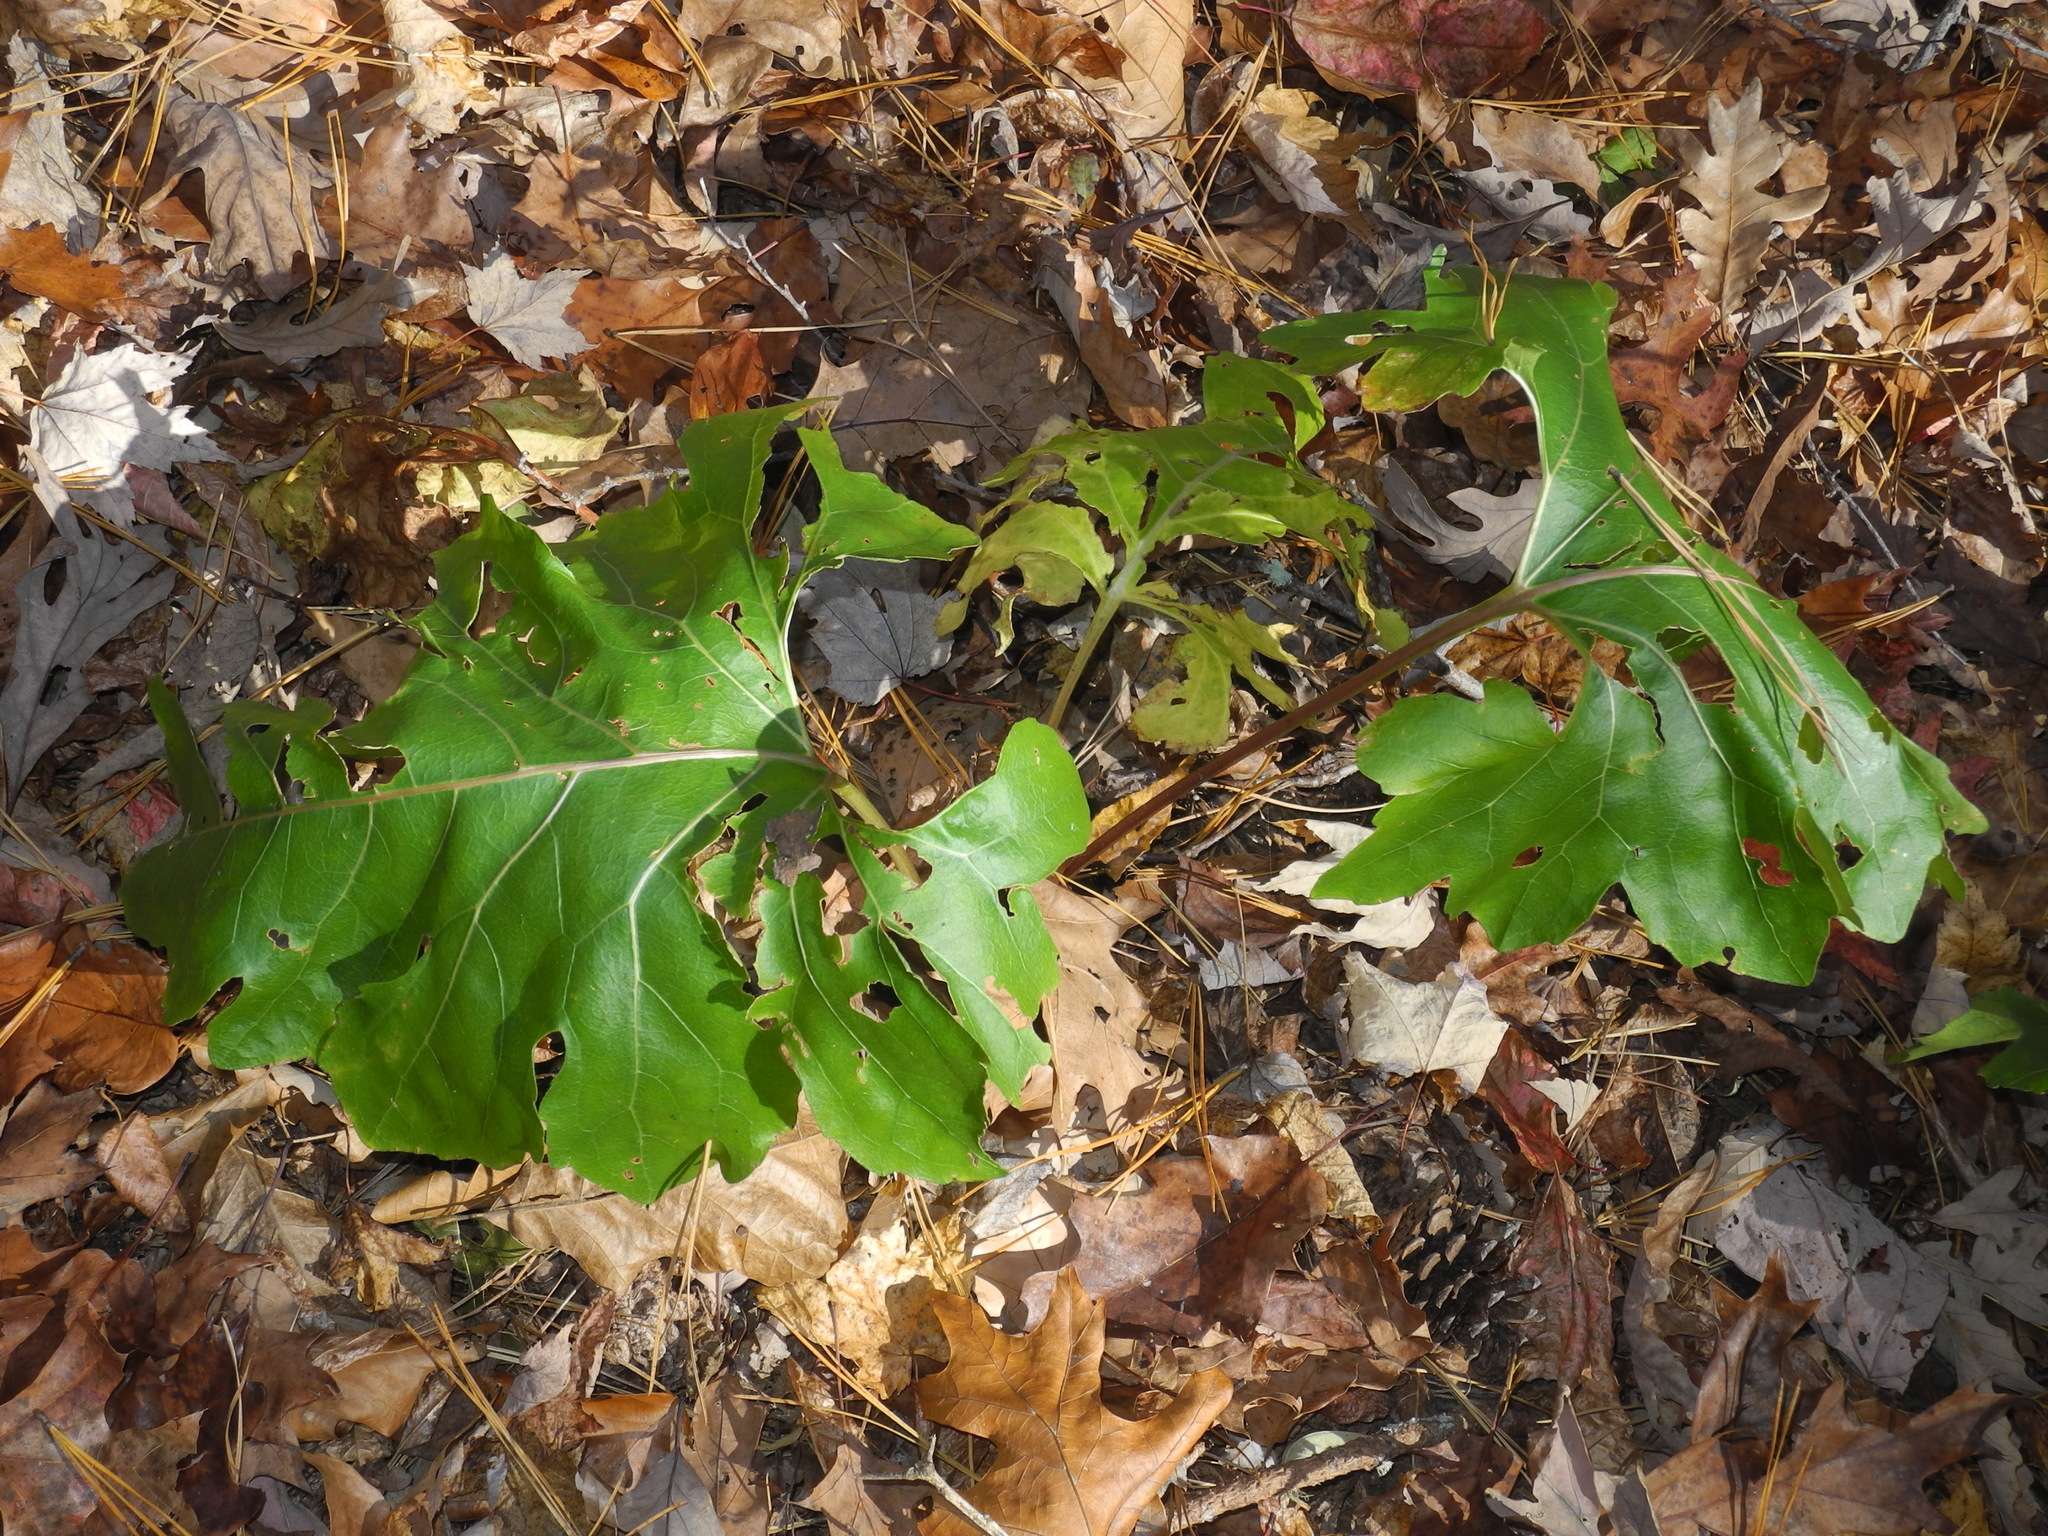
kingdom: Plantae
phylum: Tracheophyta
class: Magnoliopsida
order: Asterales
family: Asteraceae
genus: Silphium
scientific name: Silphium compositum
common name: Lesser basal-leaf rosinweed
